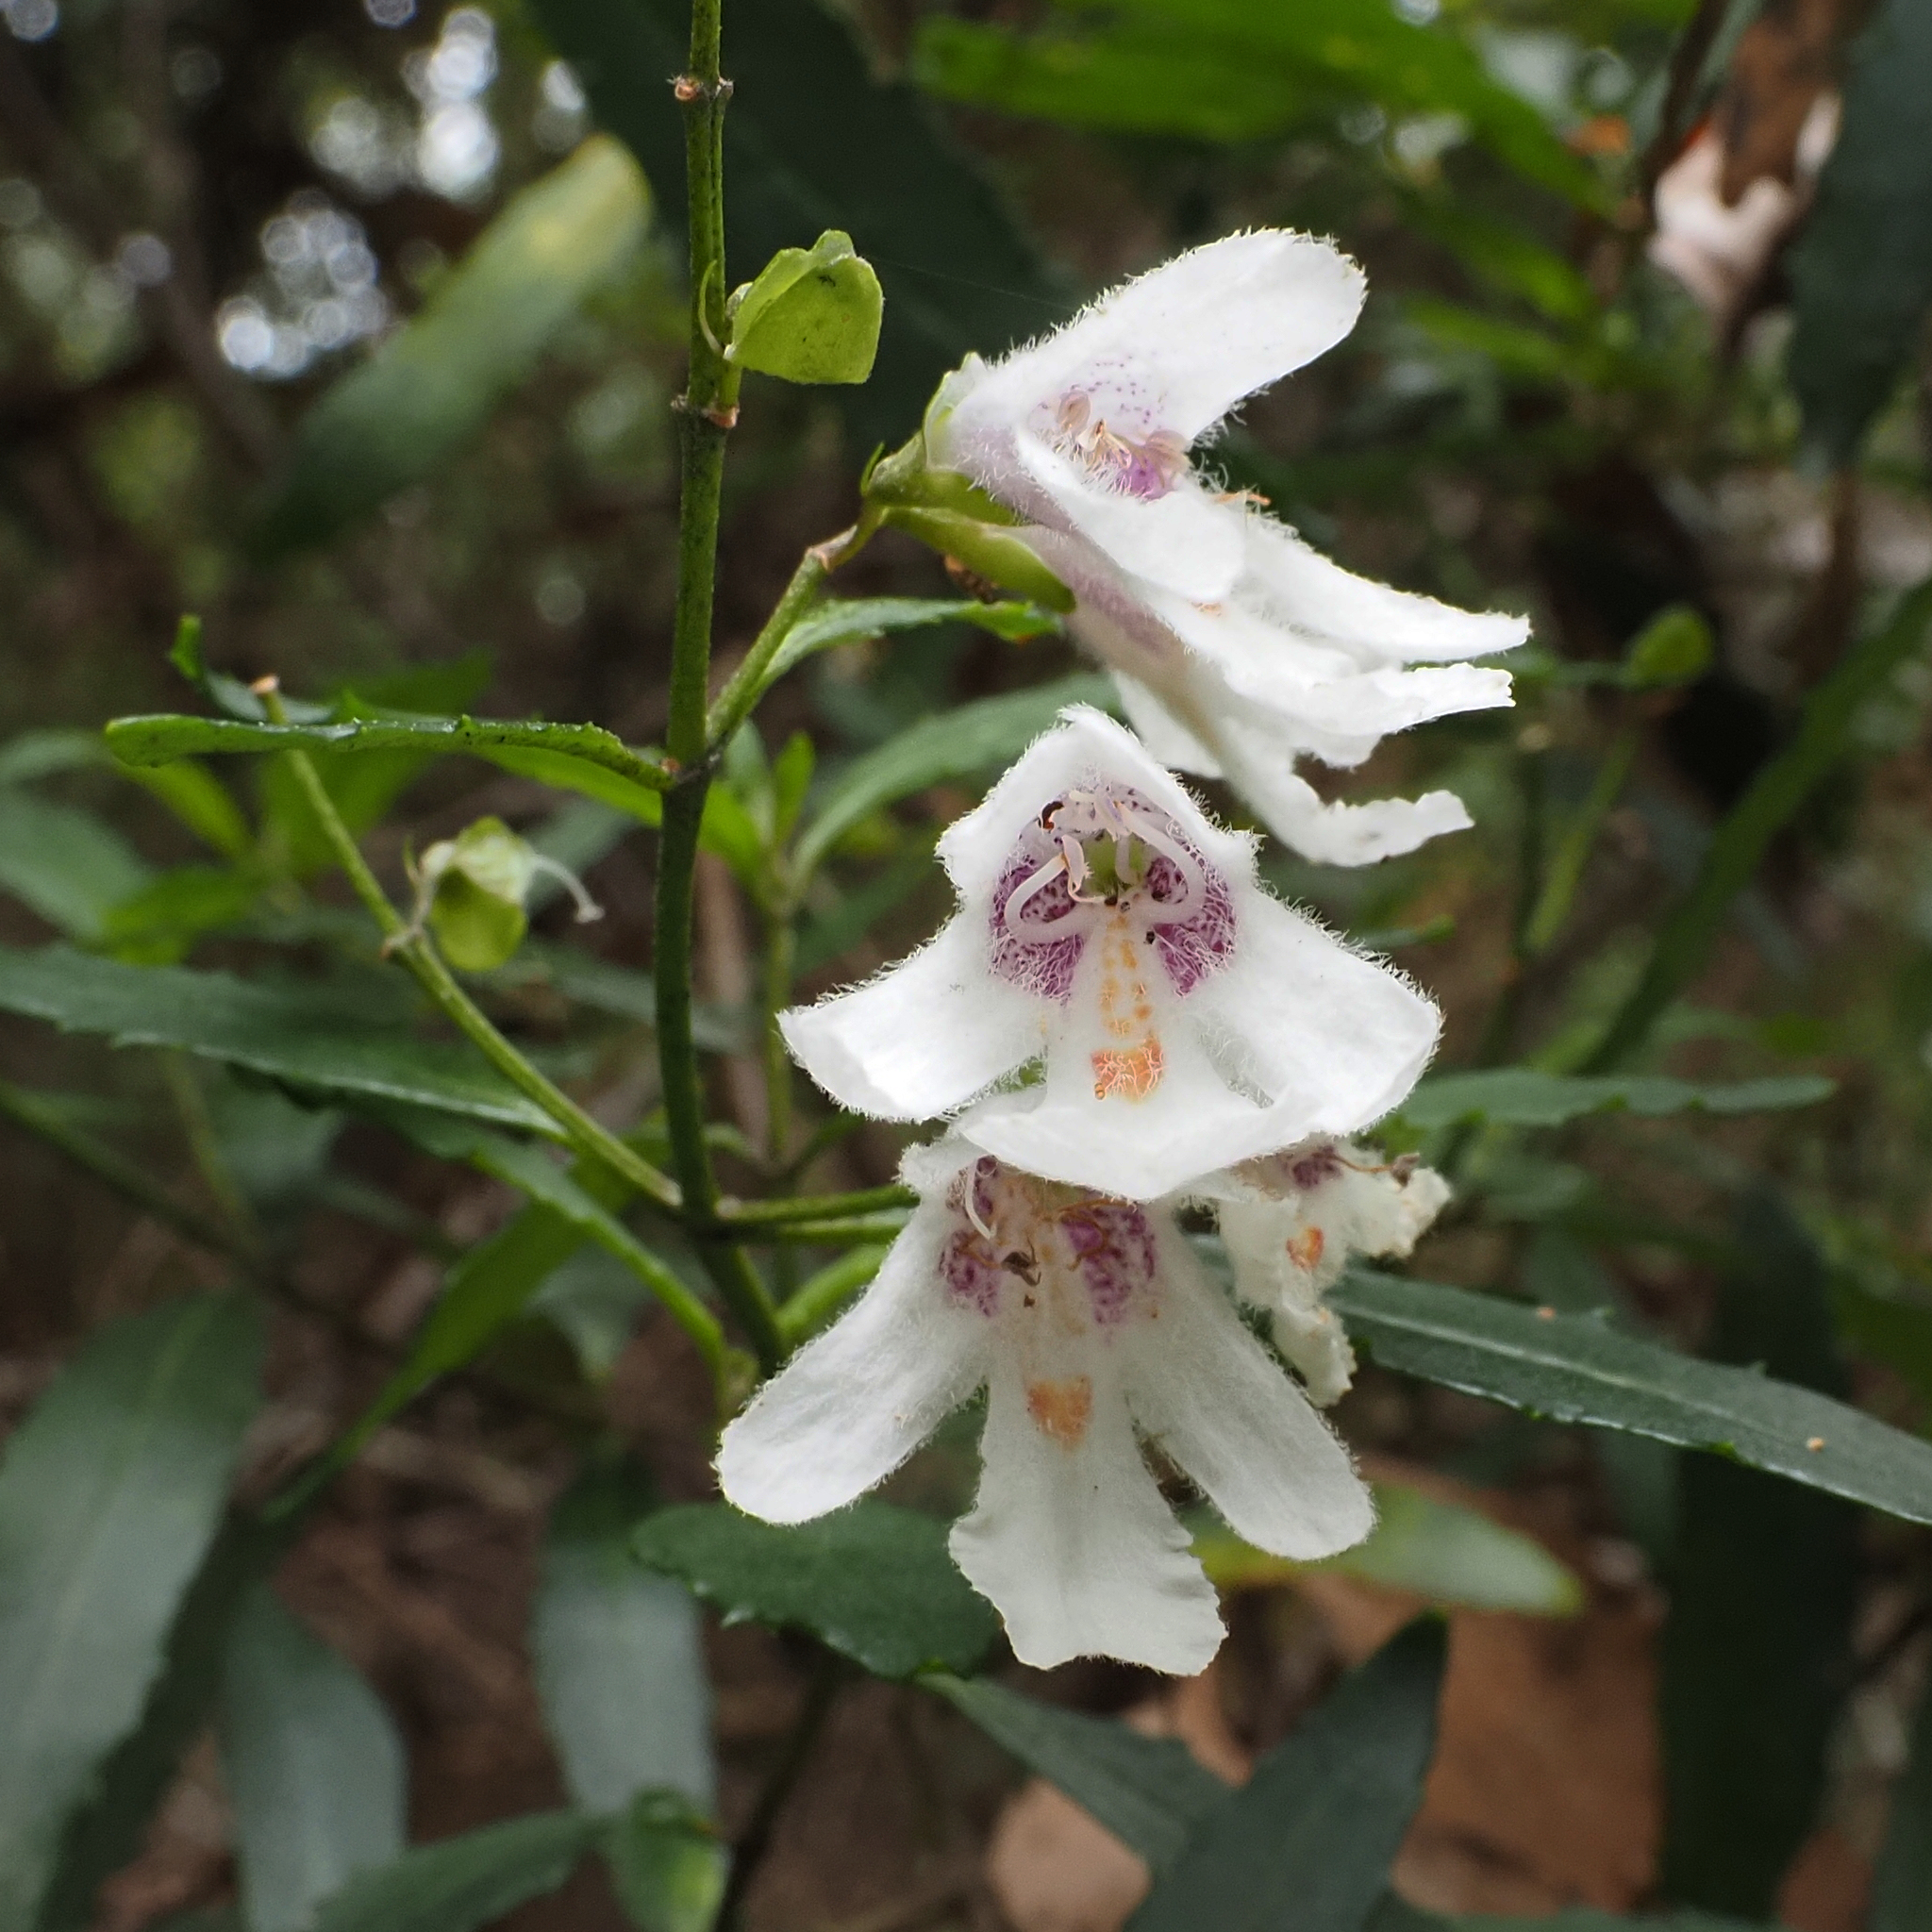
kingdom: Plantae
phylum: Tracheophyta
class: Magnoliopsida
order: Lamiales
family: Lamiaceae
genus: Prostanthera
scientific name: Prostanthera lasianthos
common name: Mountain-lilac
